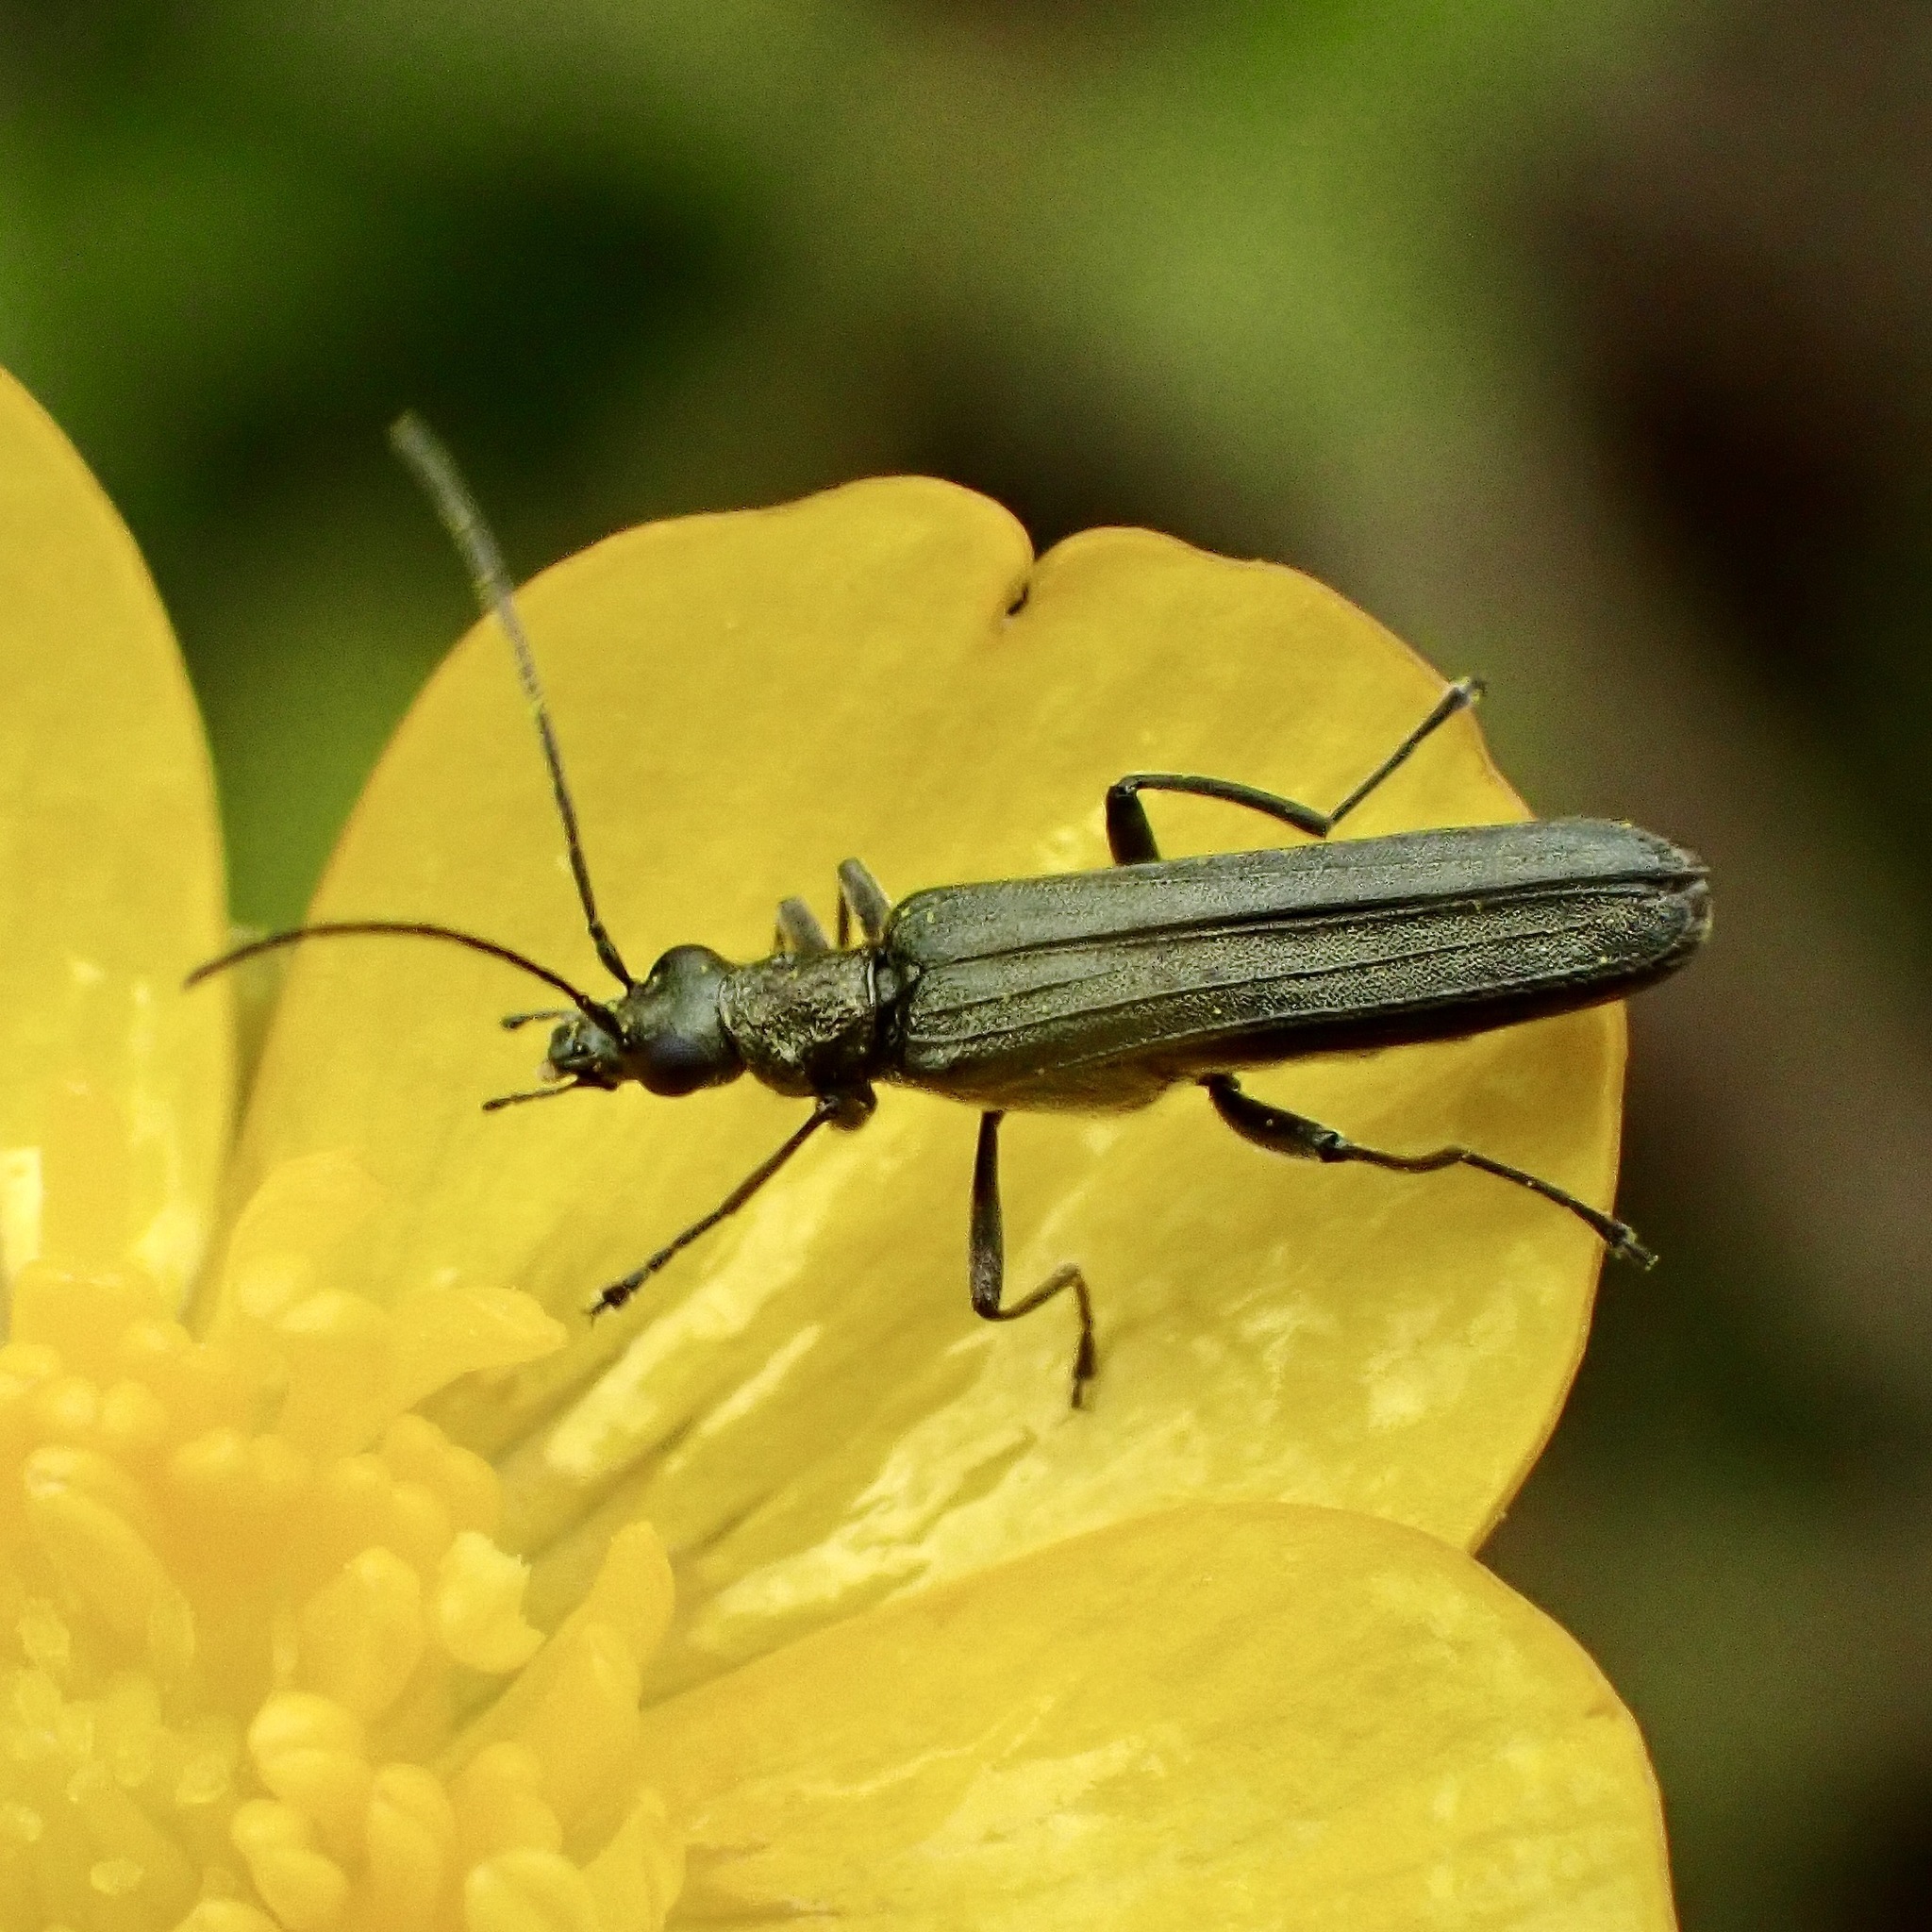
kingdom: Animalia
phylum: Arthropoda
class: Insecta
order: Coleoptera
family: Oedemeridae
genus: Oedemera
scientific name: Oedemera lurida
